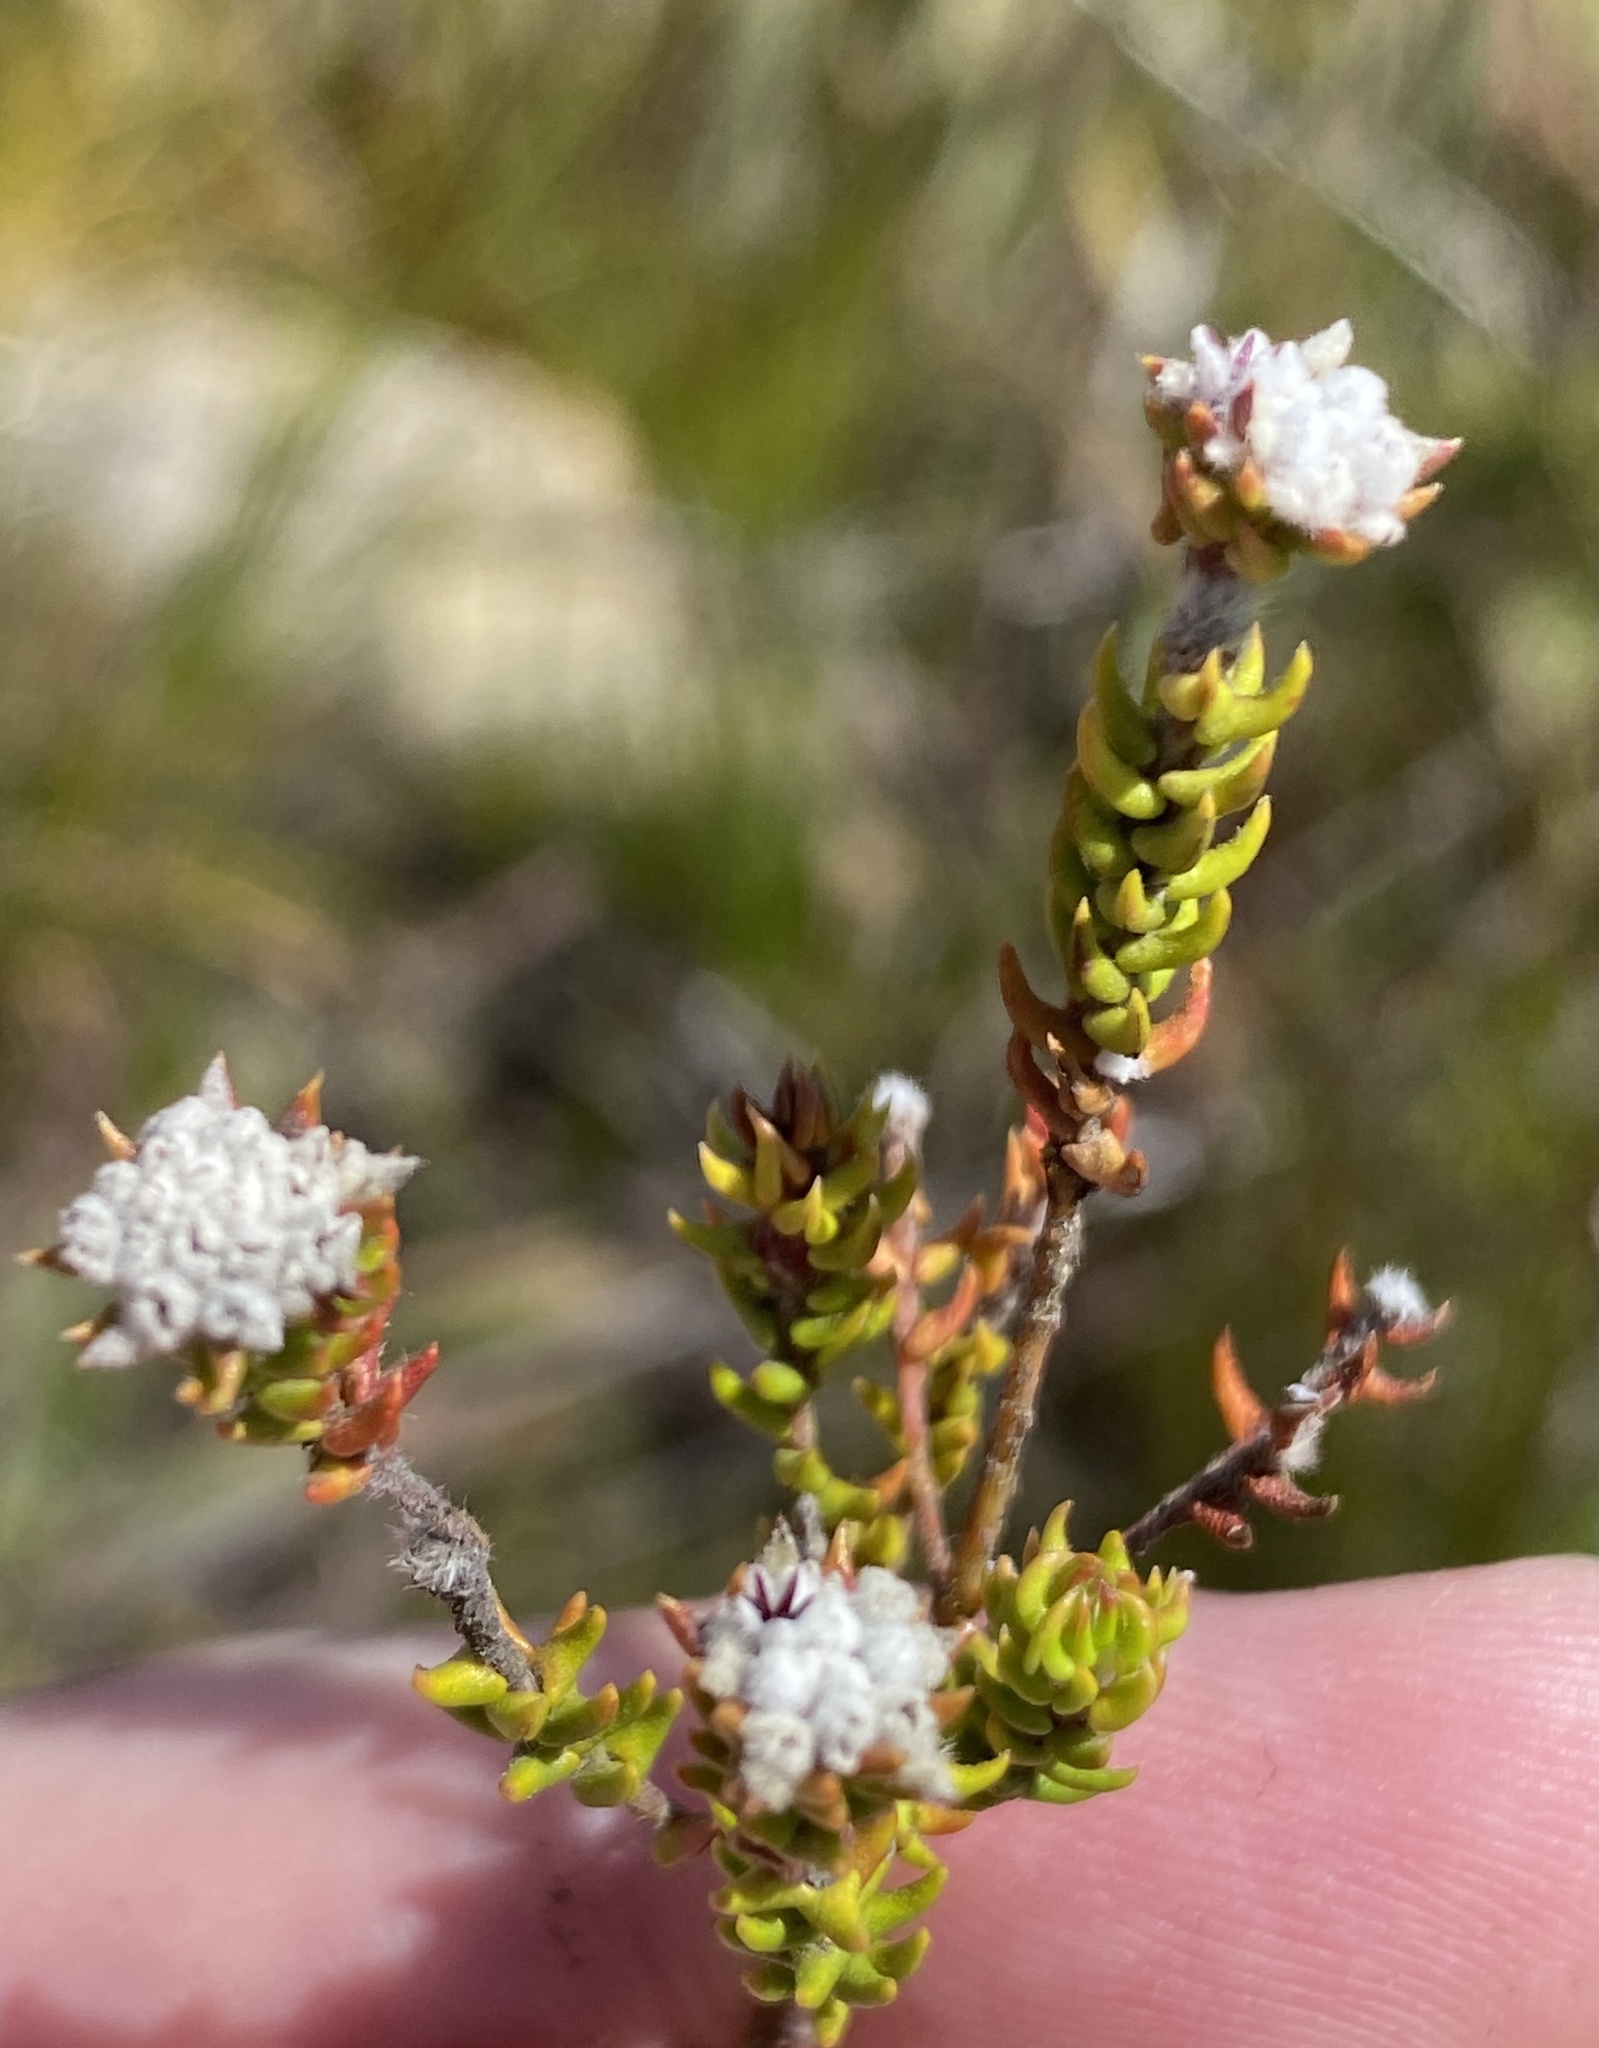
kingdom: Plantae
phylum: Tracheophyta
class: Magnoliopsida
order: Rosales
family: Rhamnaceae
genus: Phylica
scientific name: Phylica debilis
